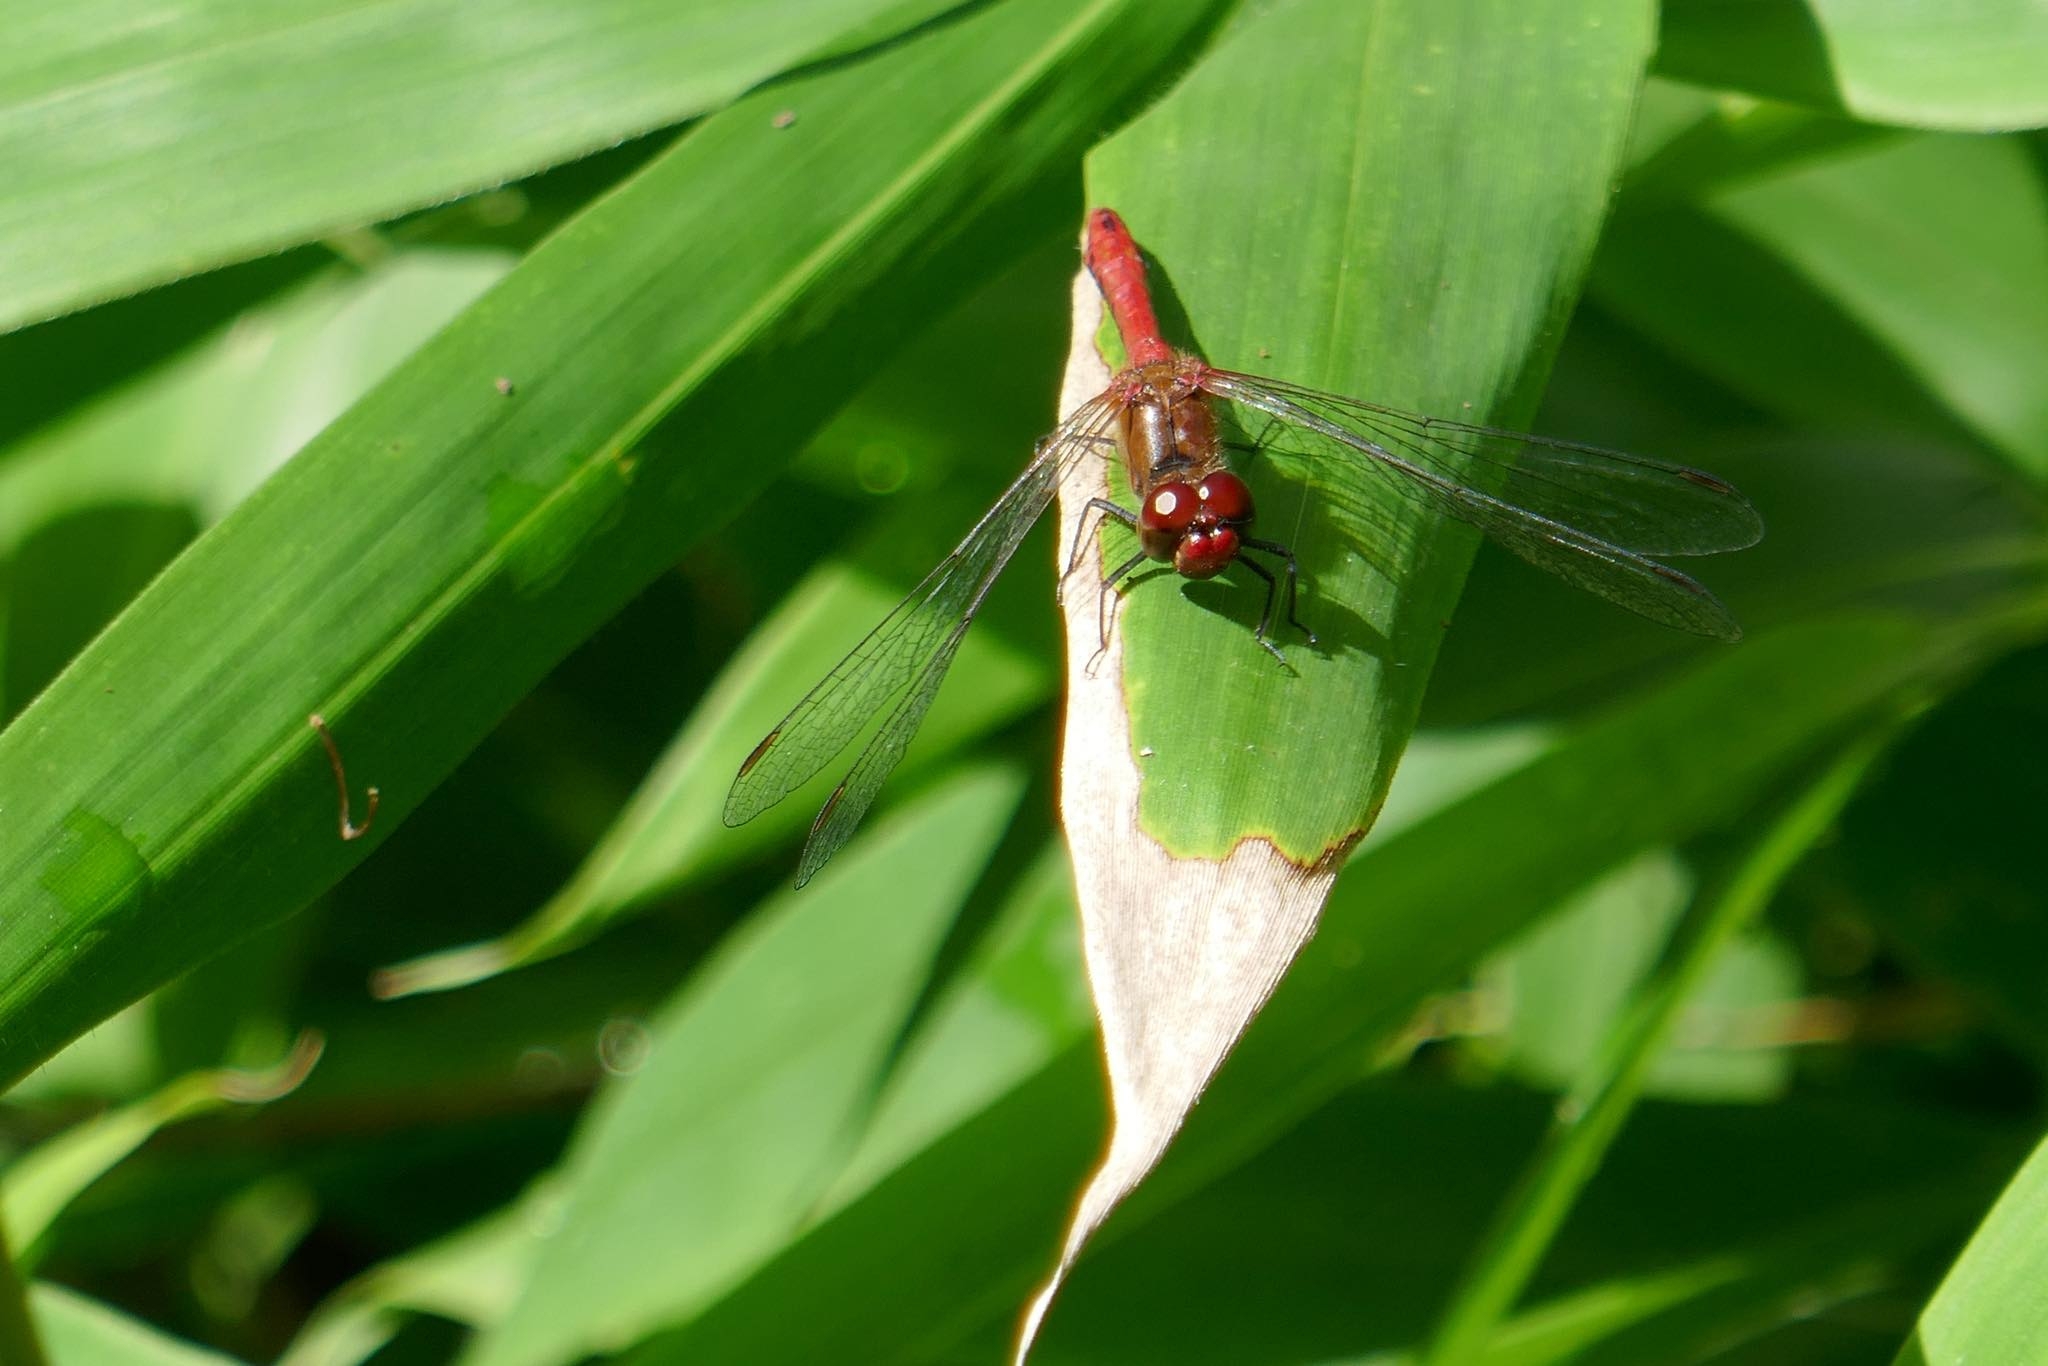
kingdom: Animalia
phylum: Arthropoda
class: Insecta
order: Odonata
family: Libellulidae
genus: Sympetrum
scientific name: Sympetrum sanguineum
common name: Ruddy darter
